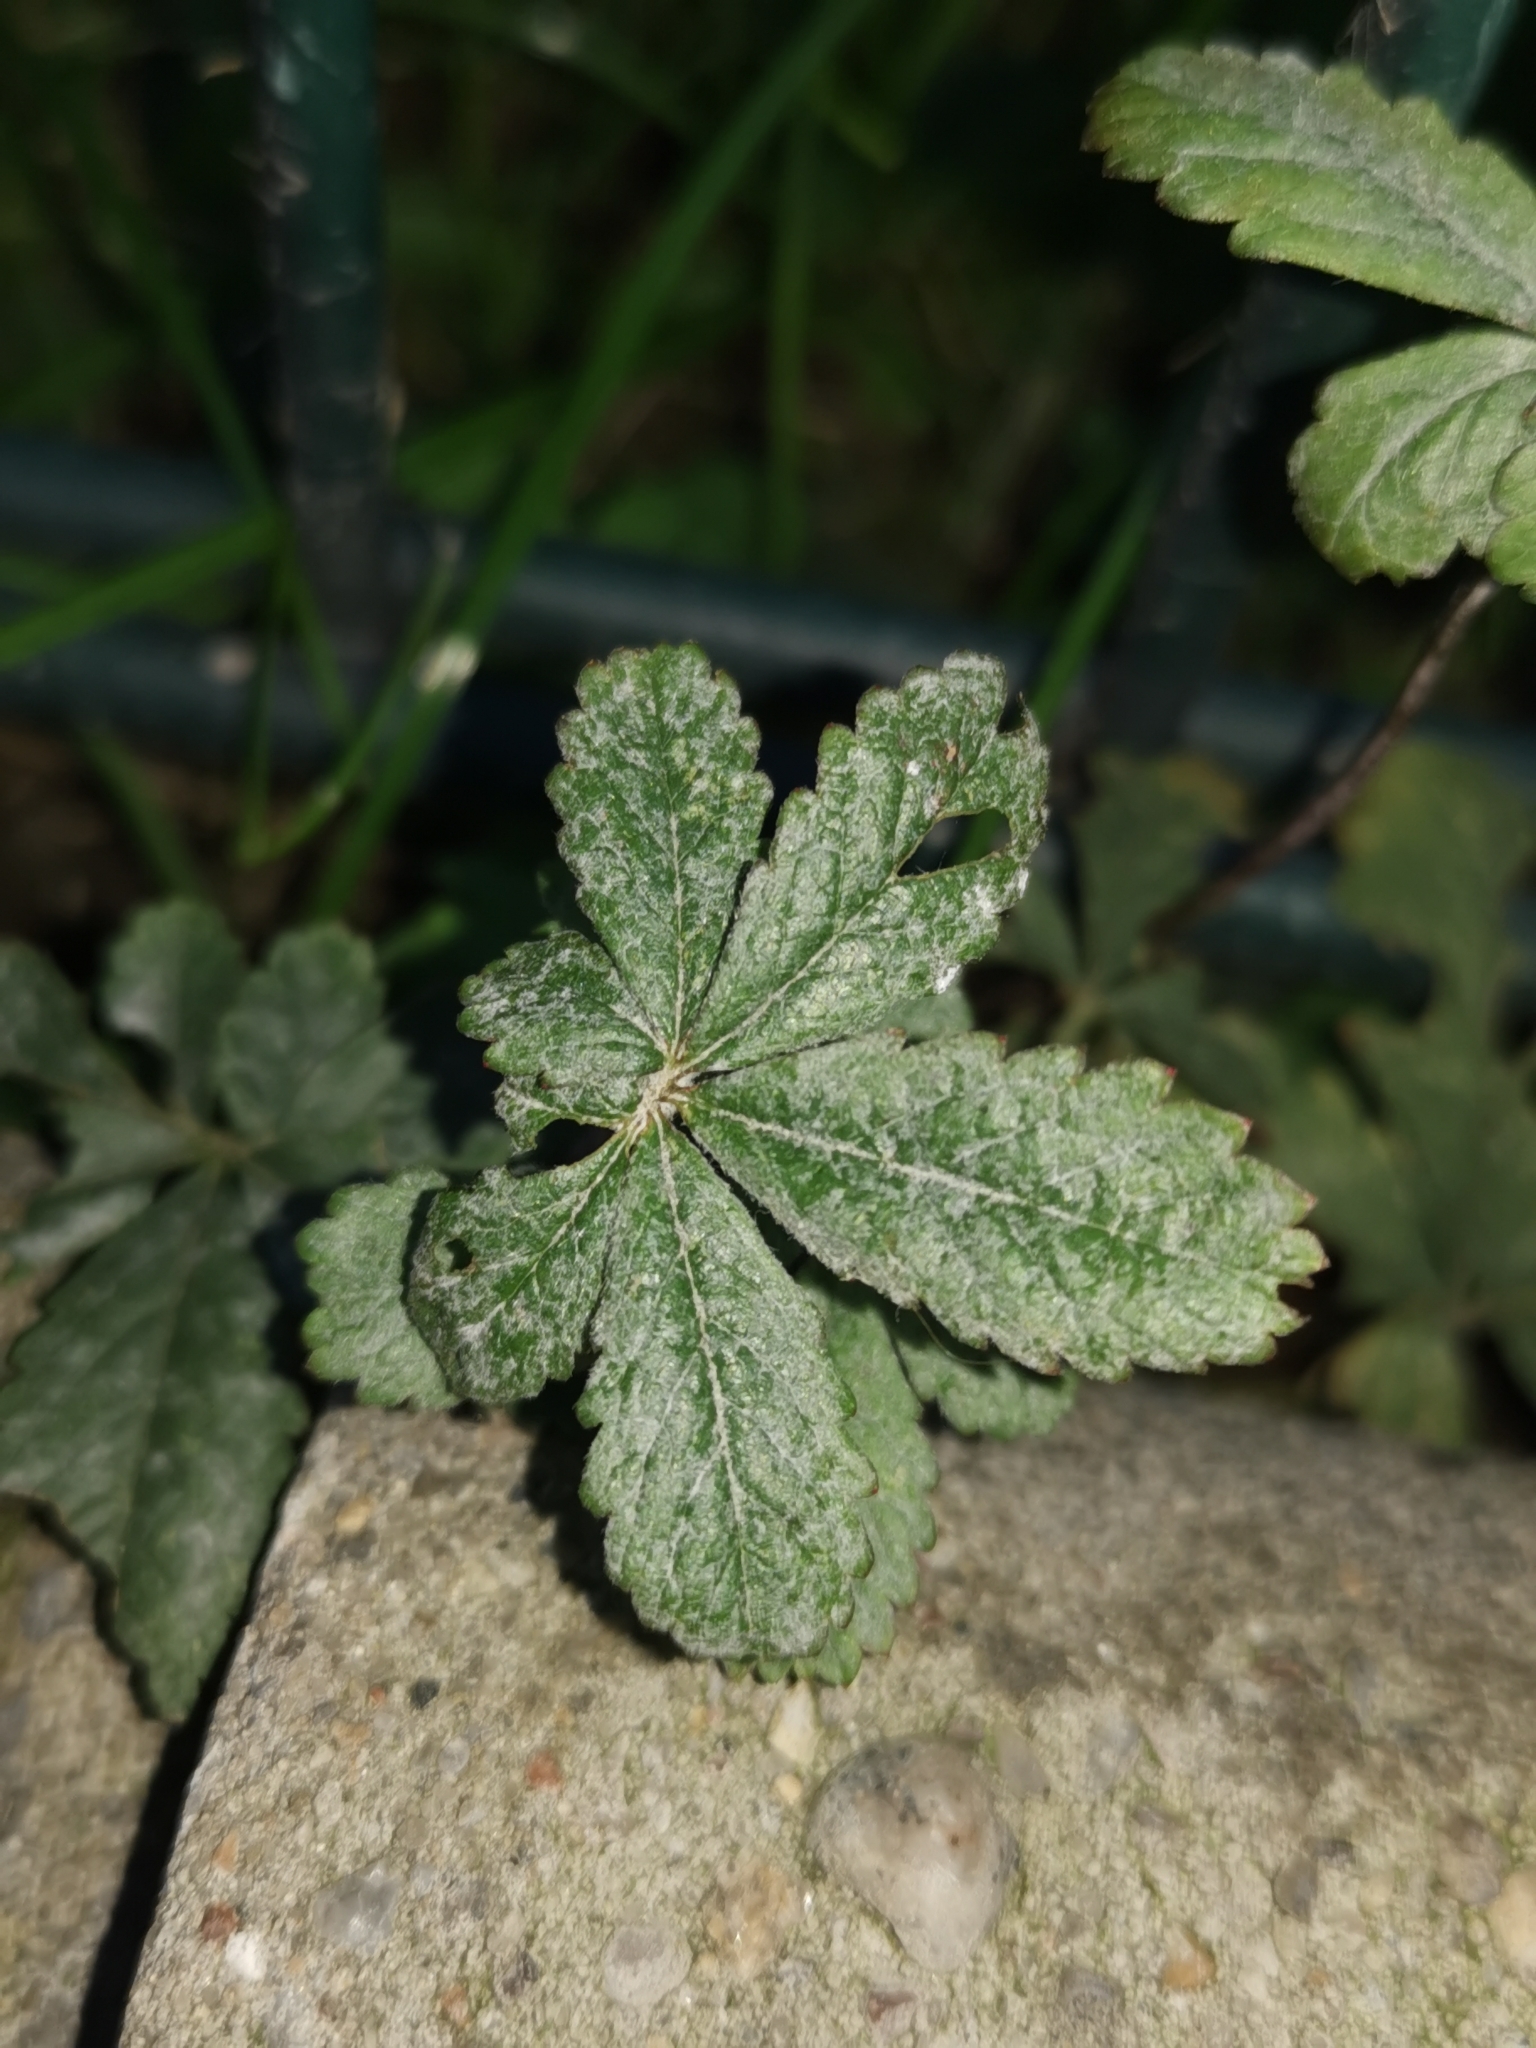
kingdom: Fungi
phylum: Ascomycota
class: Leotiomycetes
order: Helotiales
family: Erysiphaceae
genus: Podosphaera
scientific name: Podosphaera aphanis
